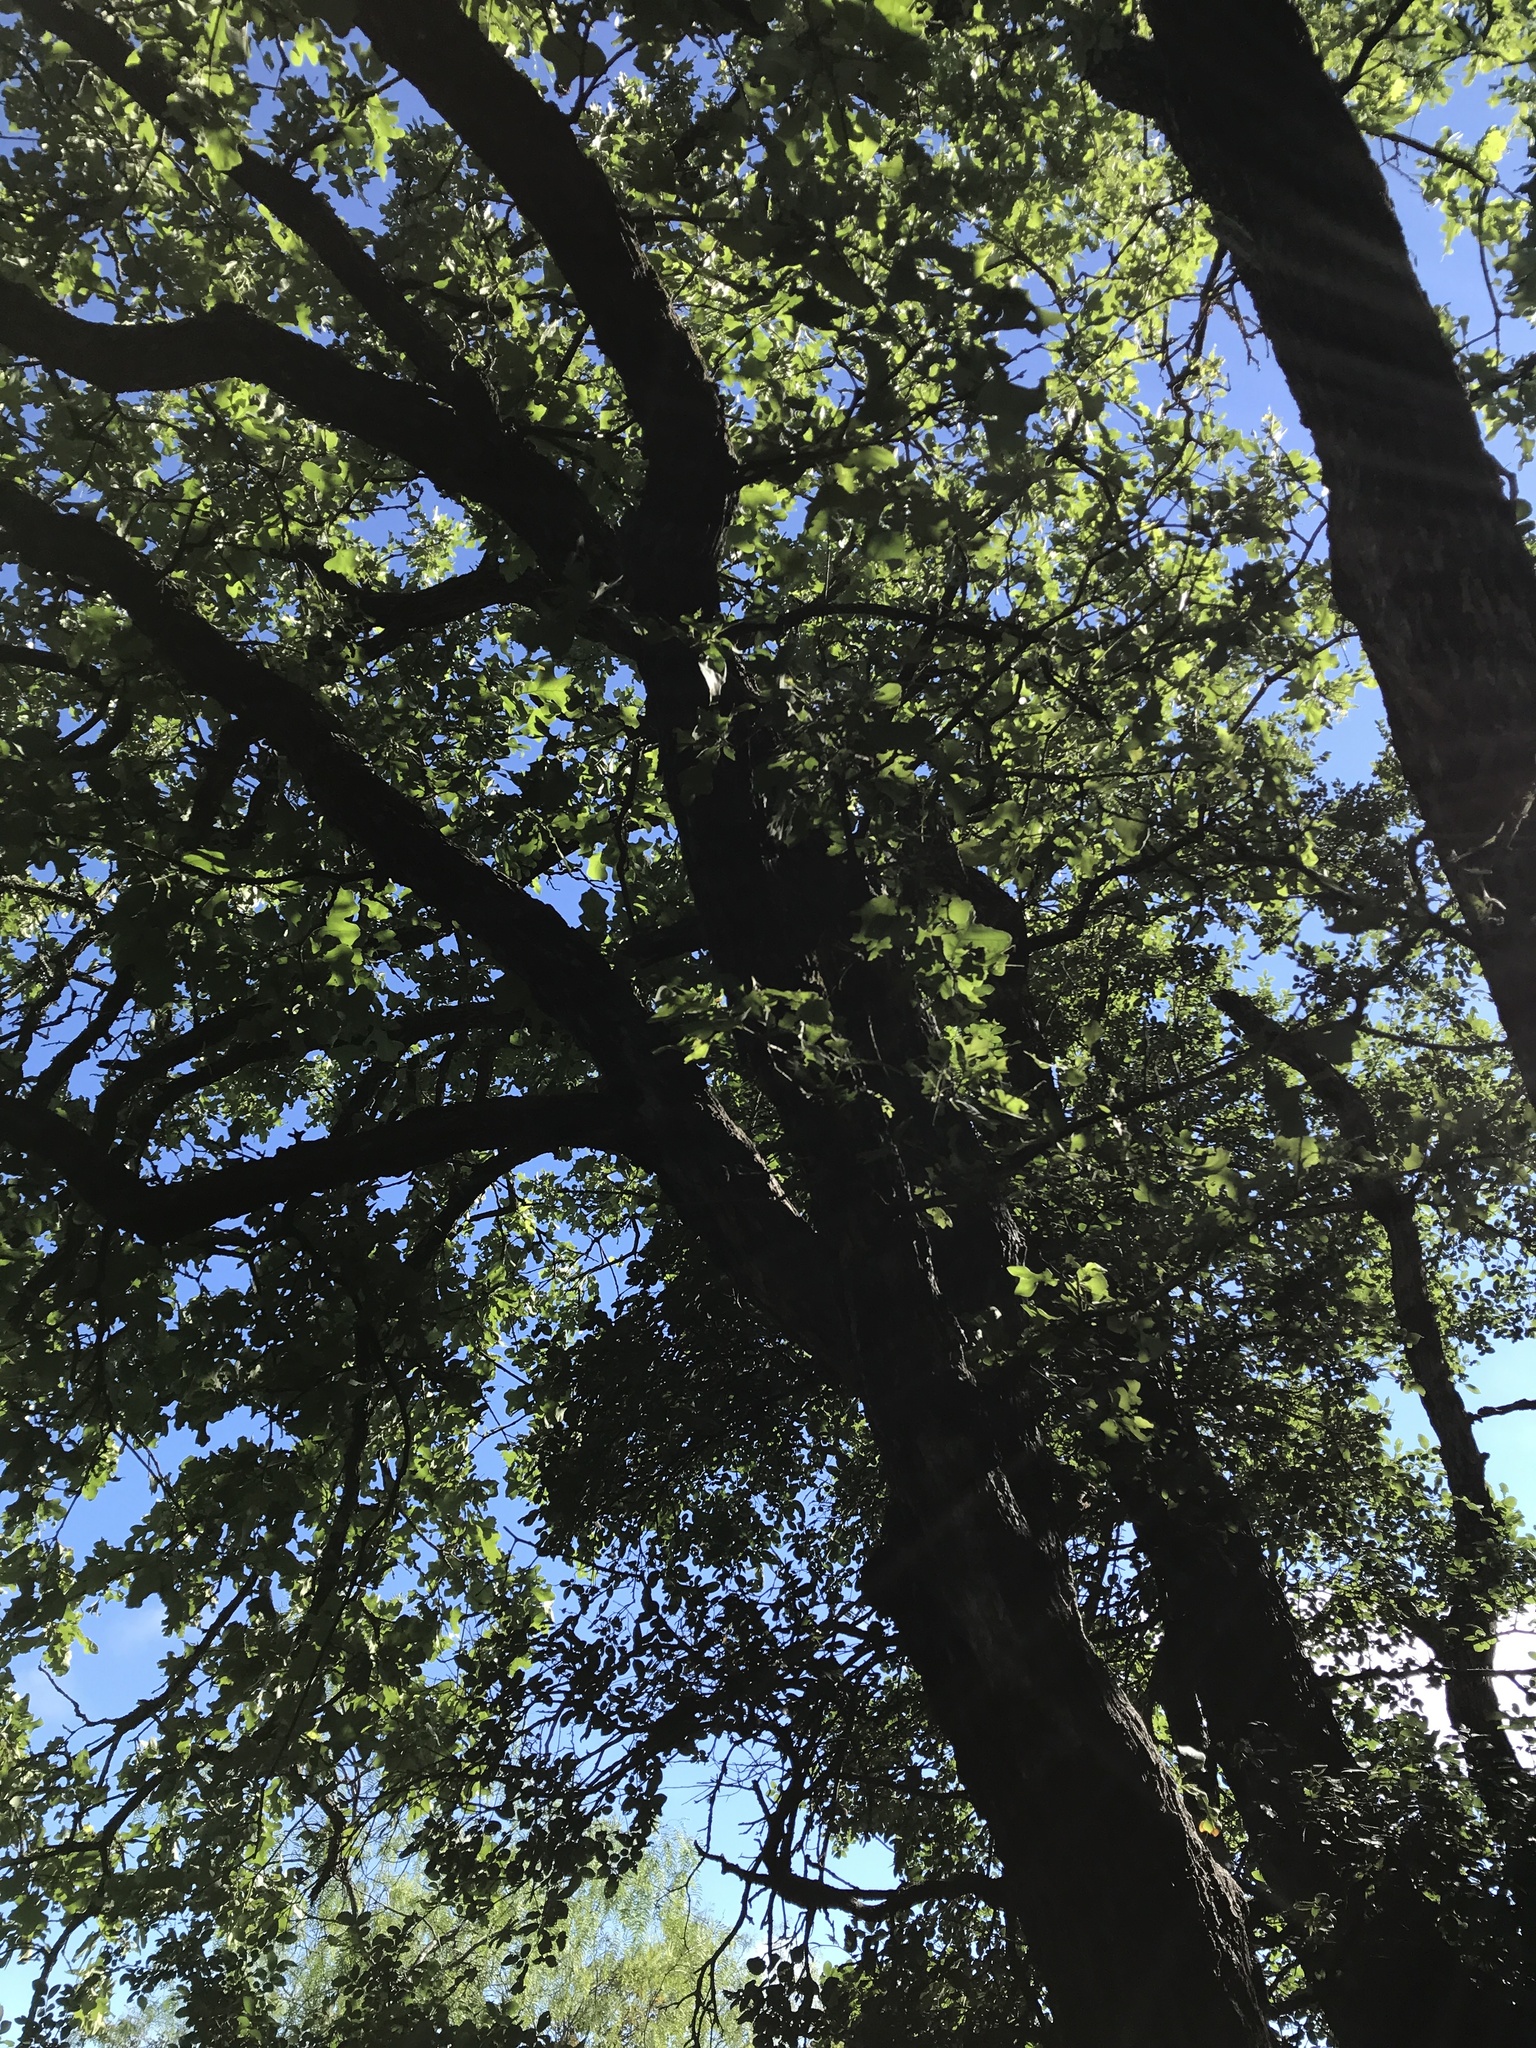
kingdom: Plantae
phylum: Tracheophyta
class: Magnoliopsida
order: Fagales
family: Fagaceae
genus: Quercus
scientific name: Quercus stellata
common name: Post oak
